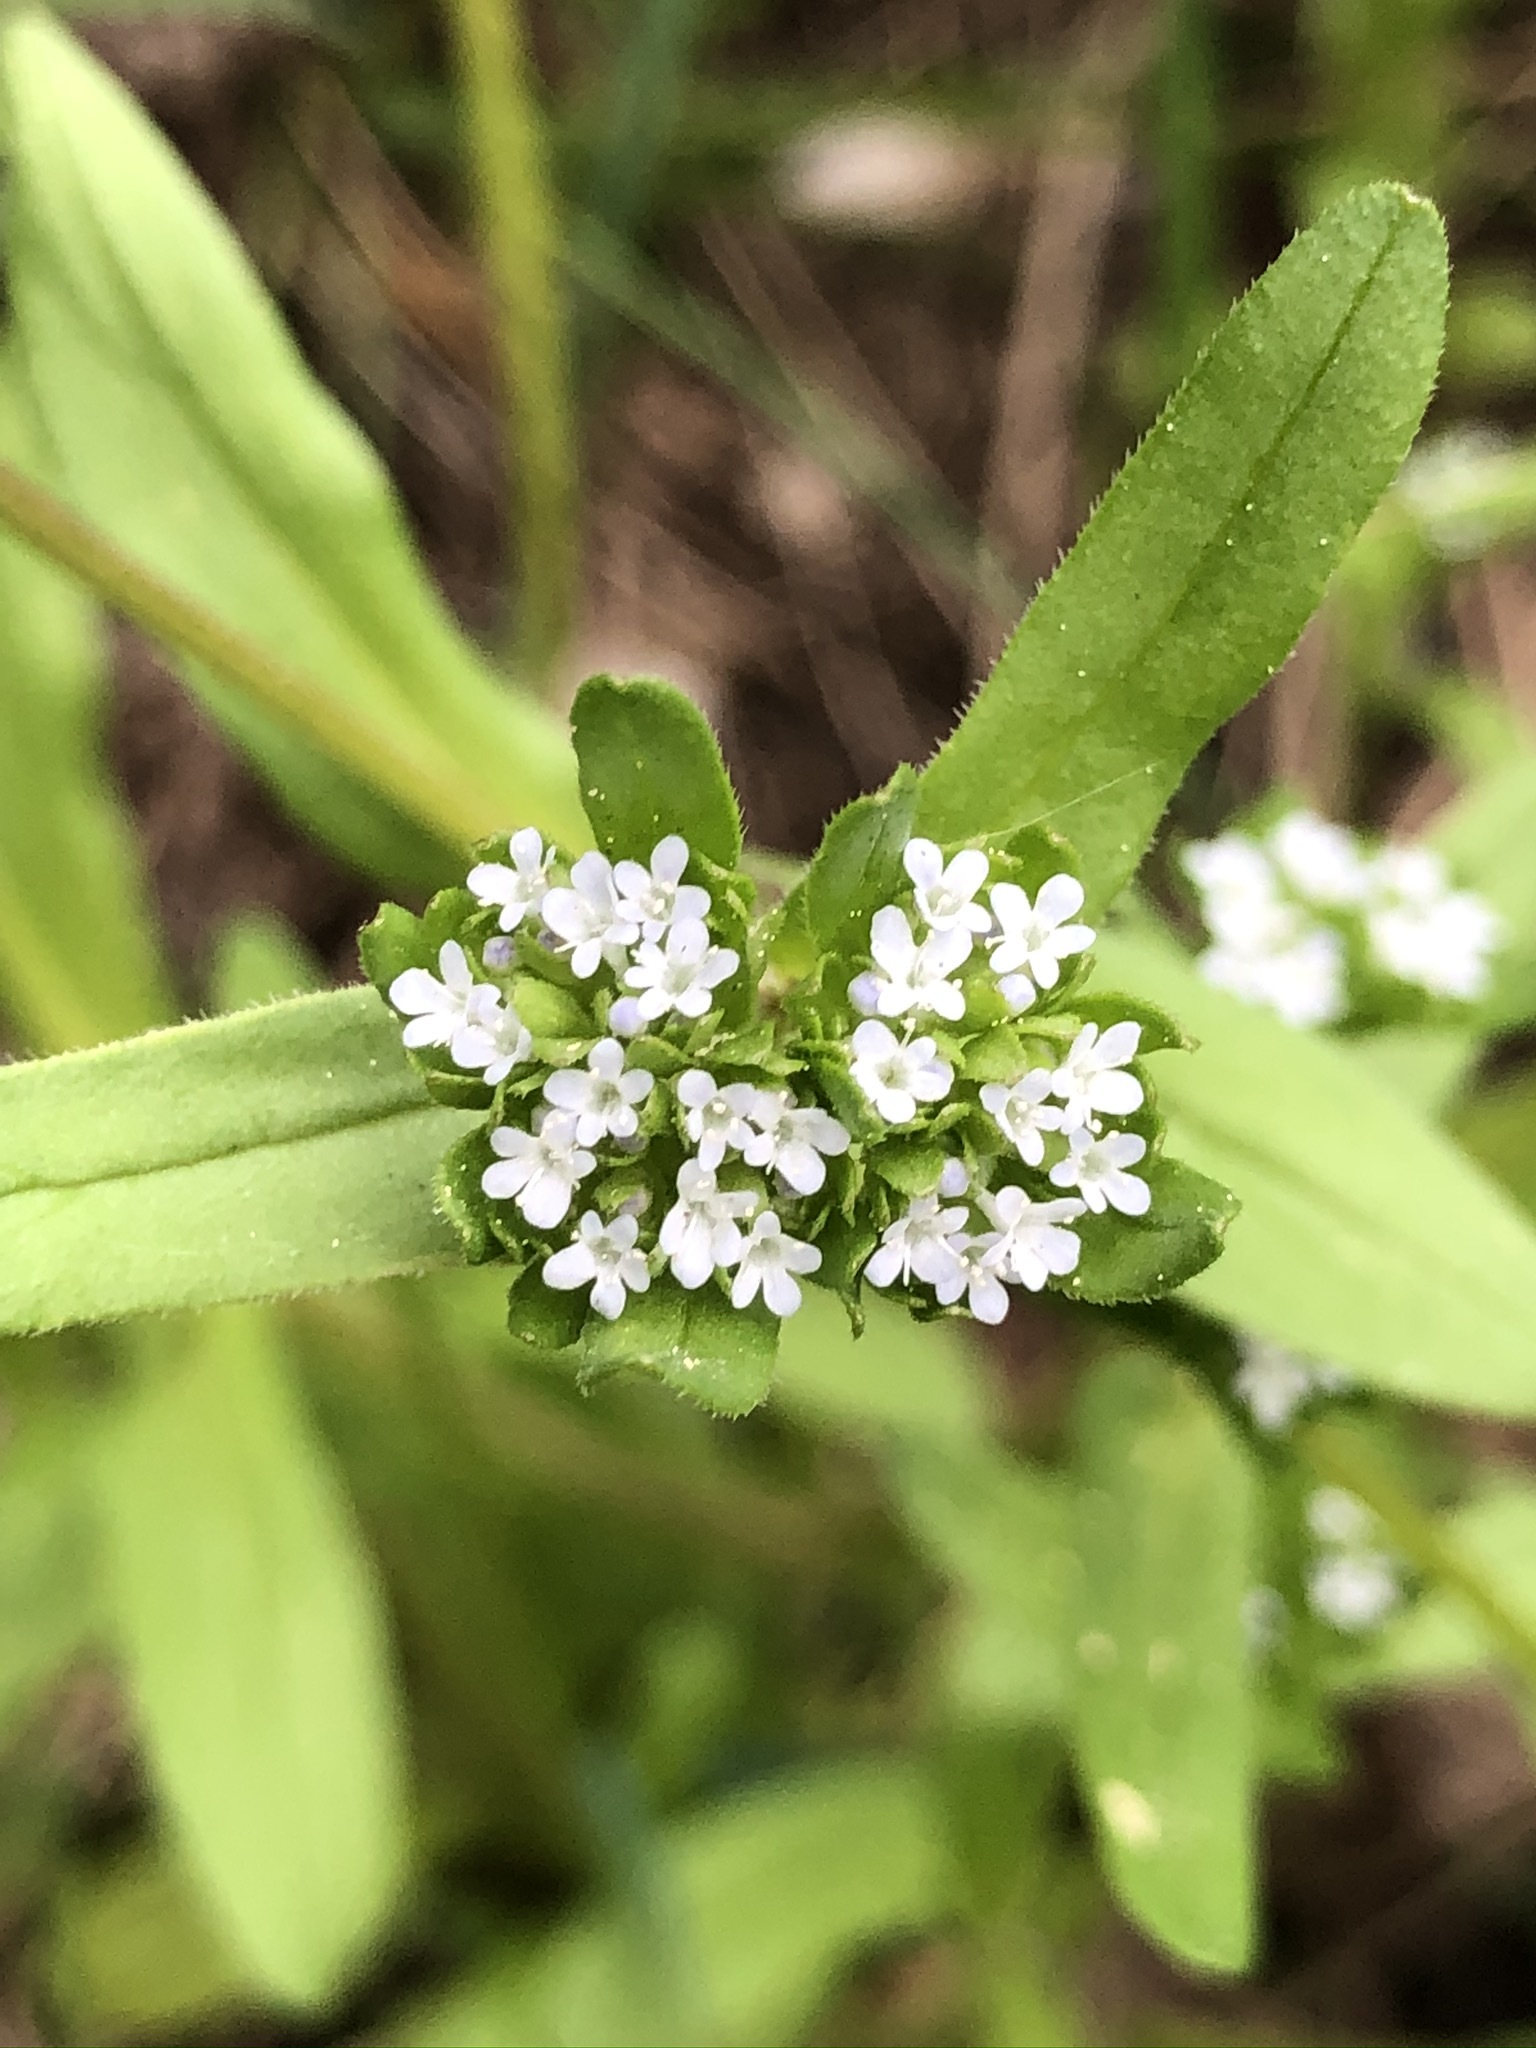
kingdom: Plantae
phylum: Tracheophyta
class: Magnoliopsida
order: Dipsacales
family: Caprifoliaceae
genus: Valerianella
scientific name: Valerianella locusta
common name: Common cornsalad
